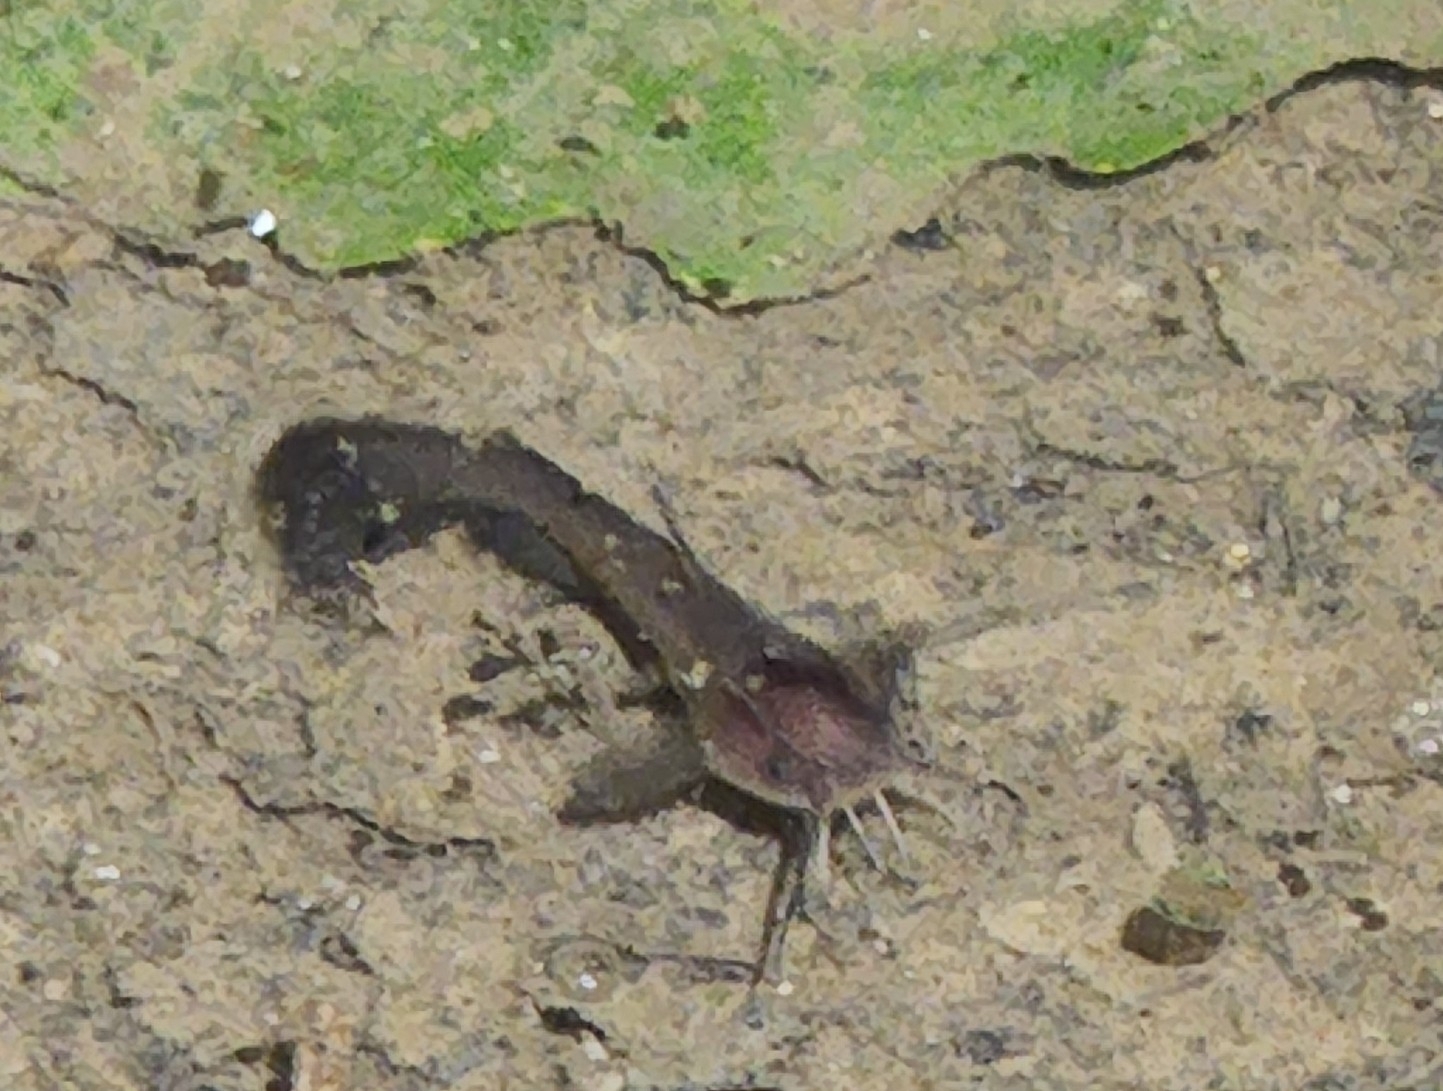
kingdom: Animalia
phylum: Chordata
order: Siluriformes
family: Ictaluridae
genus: Ameiurus
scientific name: Ameiurus natalis
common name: Yellow bullhead
